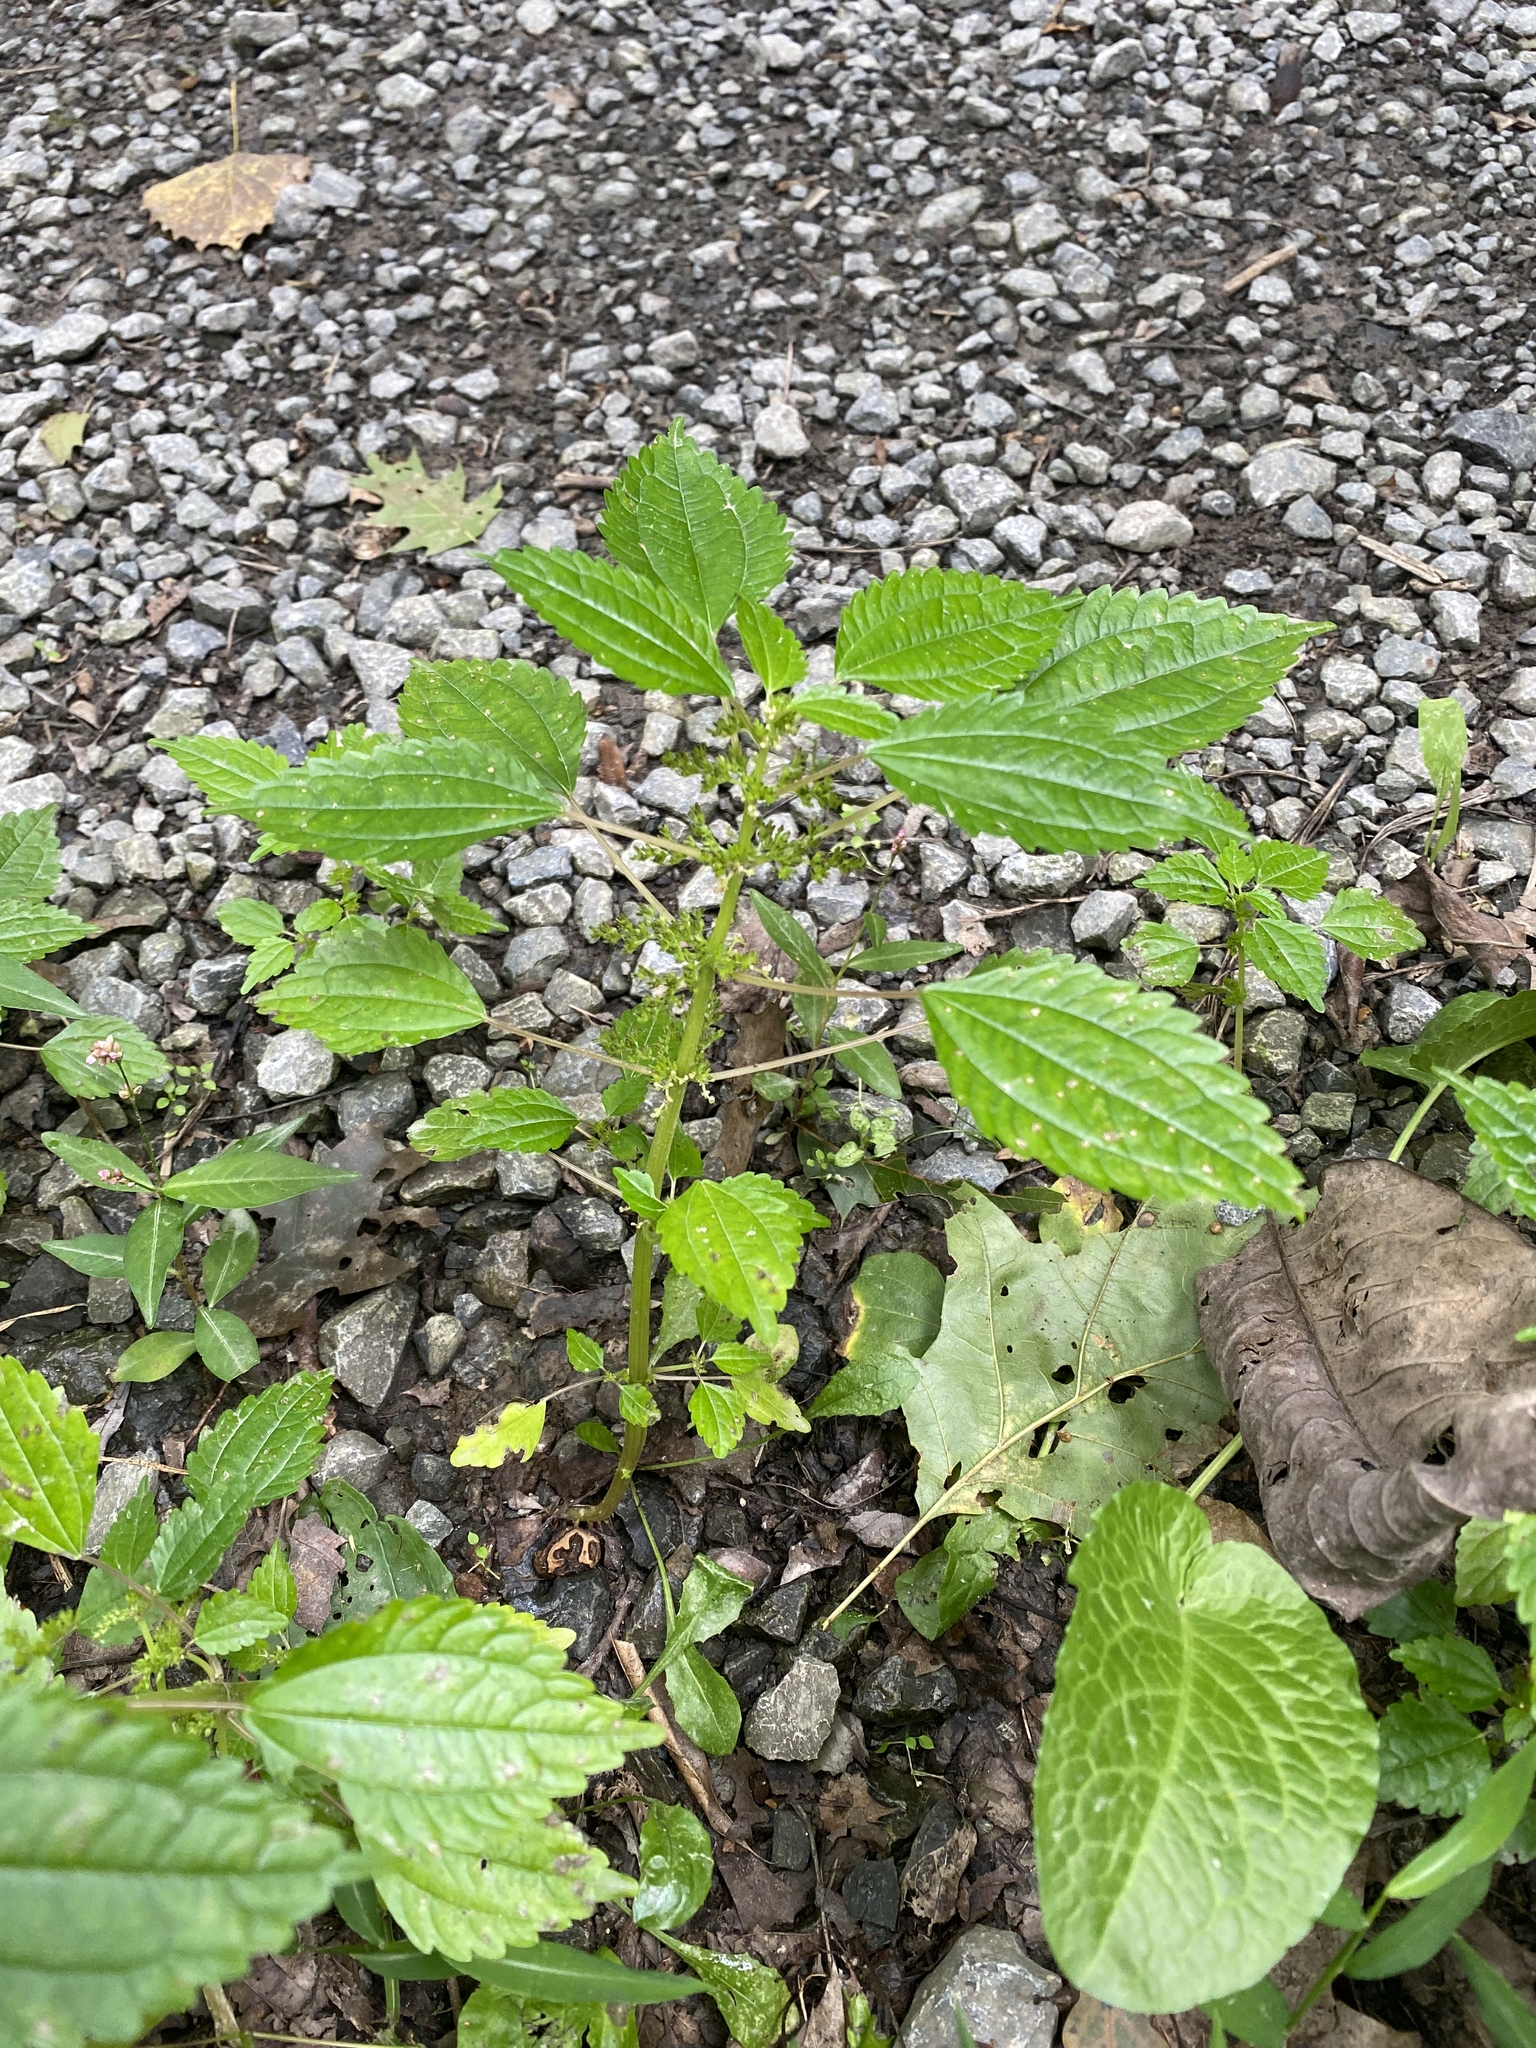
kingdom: Plantae
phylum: Tracheophyta
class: Magnoliopsida
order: Rosales
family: Urticaceae
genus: Pilea
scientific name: Pilea pumila
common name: Clearweed
